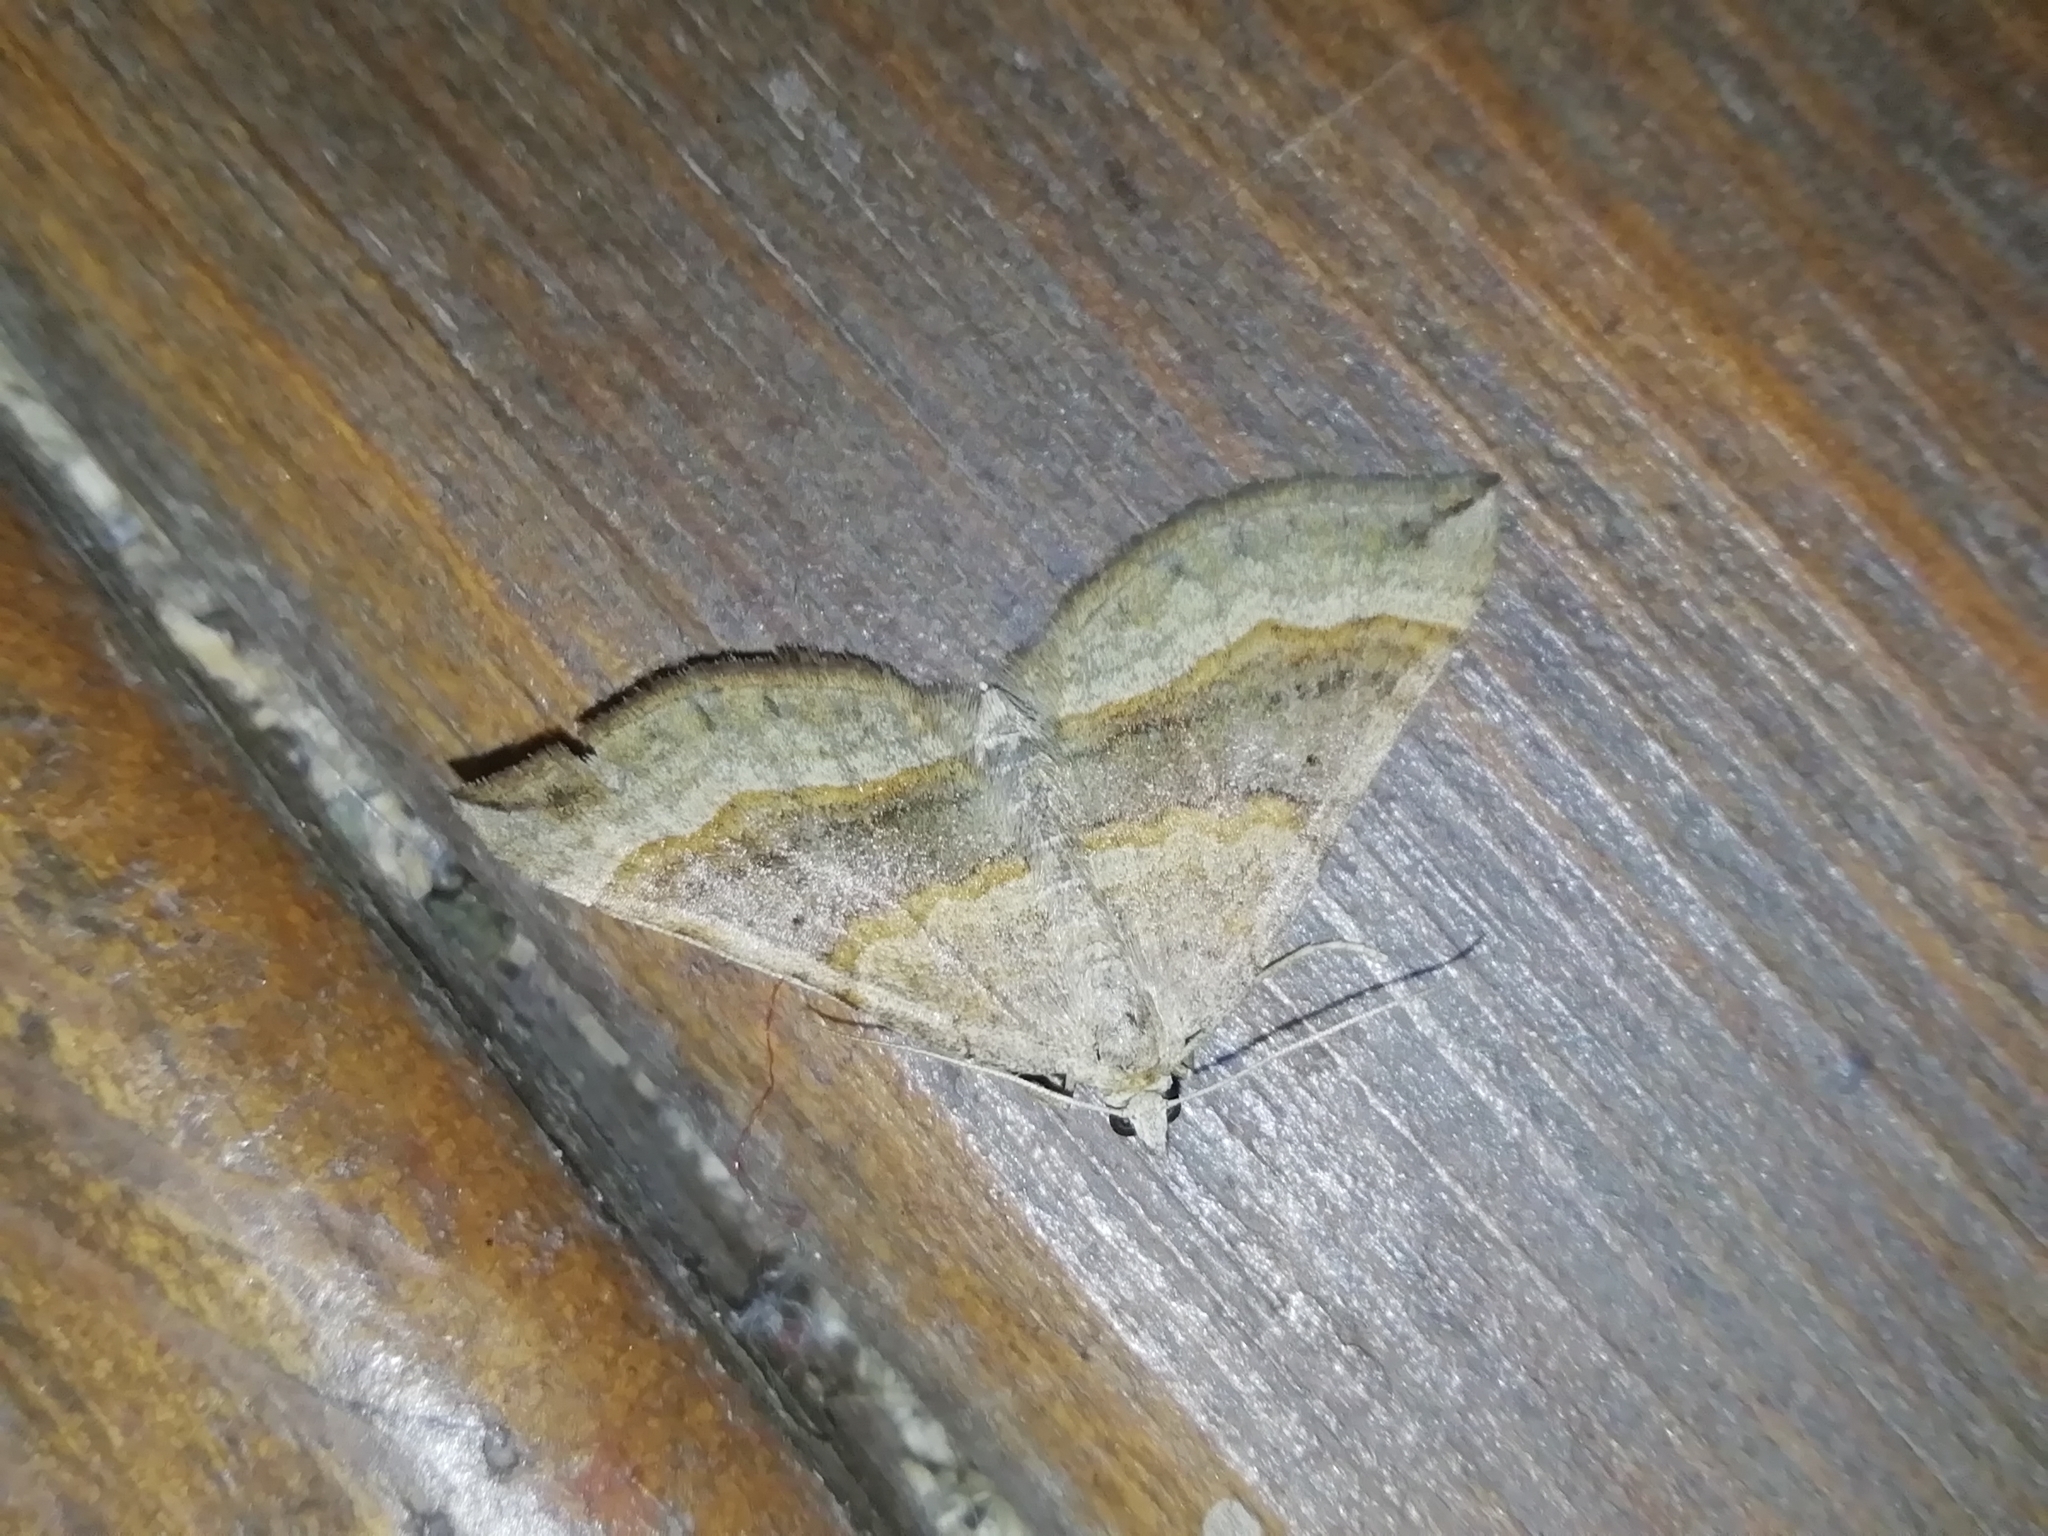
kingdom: Animalia
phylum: Arthropoda
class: Insecta
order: Lepidoptera
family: Geometridae
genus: Scotopteryx
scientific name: Scotopteryx chenopodiata
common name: Shaded broad-bar
